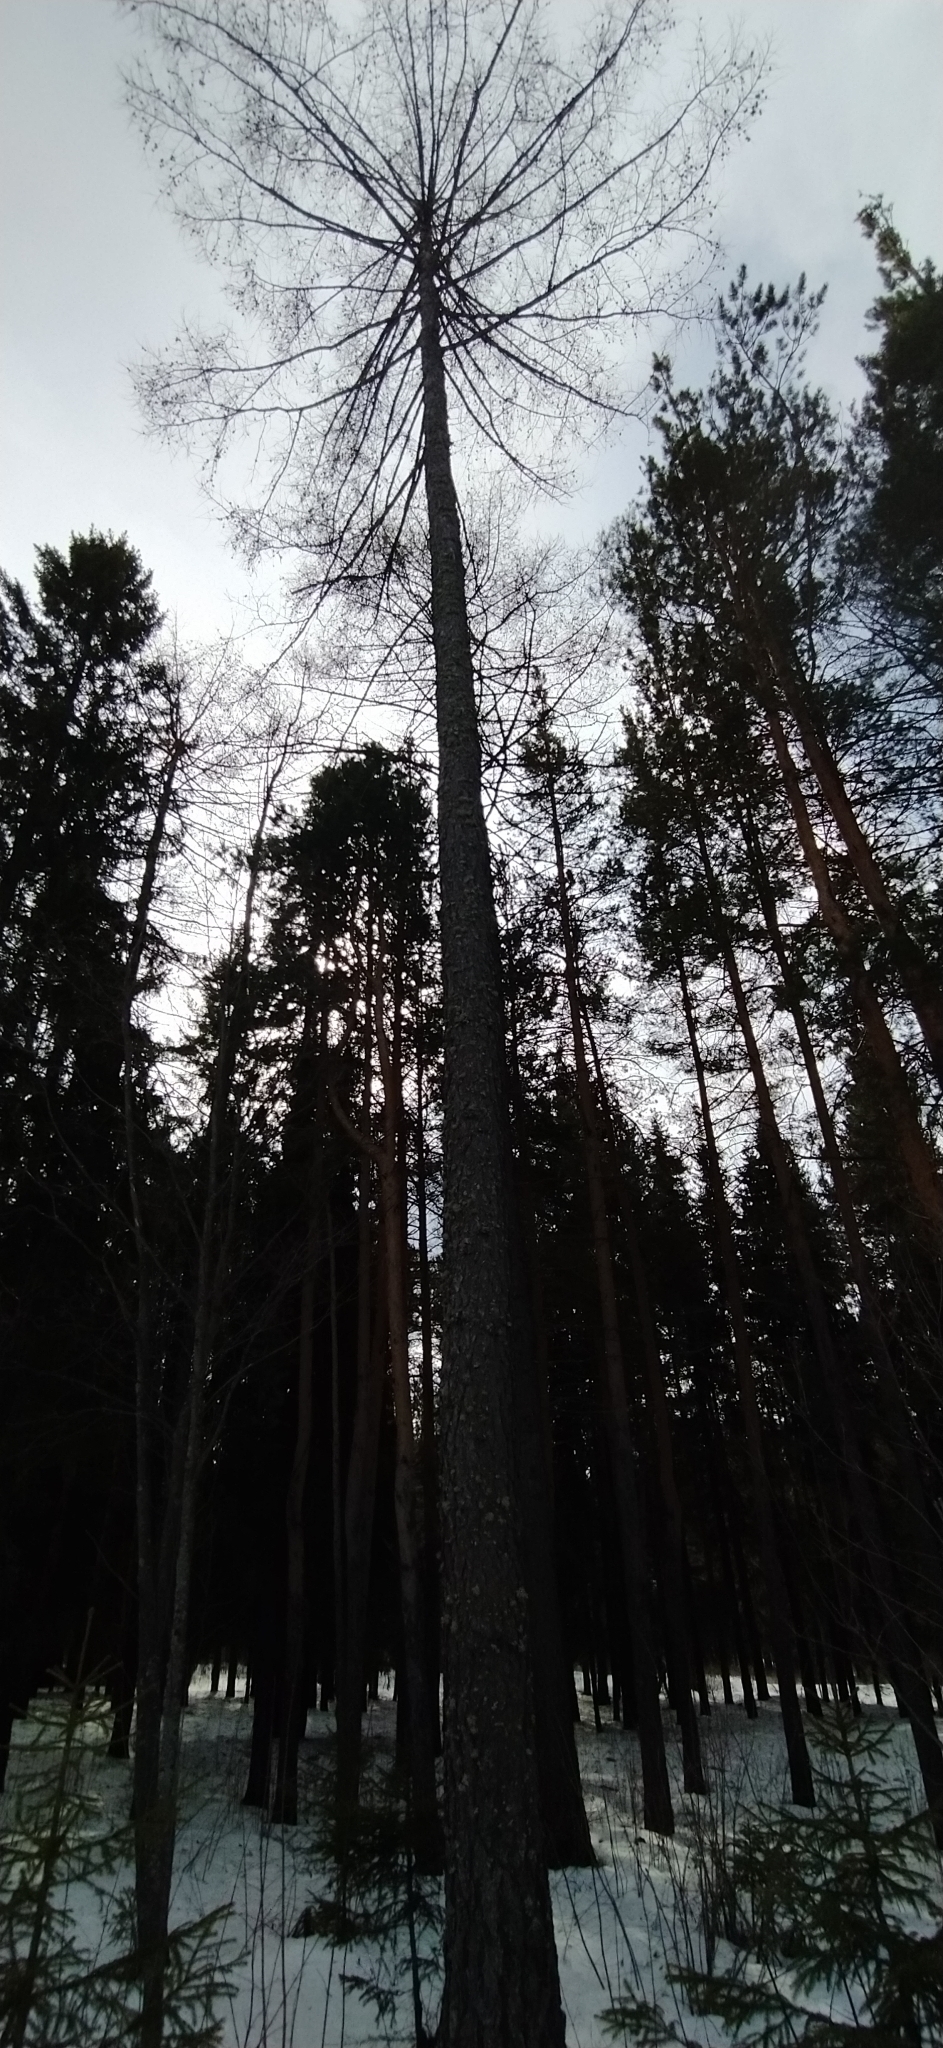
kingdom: Plantae
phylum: Tracheophyta
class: Pinopsida
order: Pinales
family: Pinaceae
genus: Larix
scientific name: Larix sibirica
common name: Siberian larch
